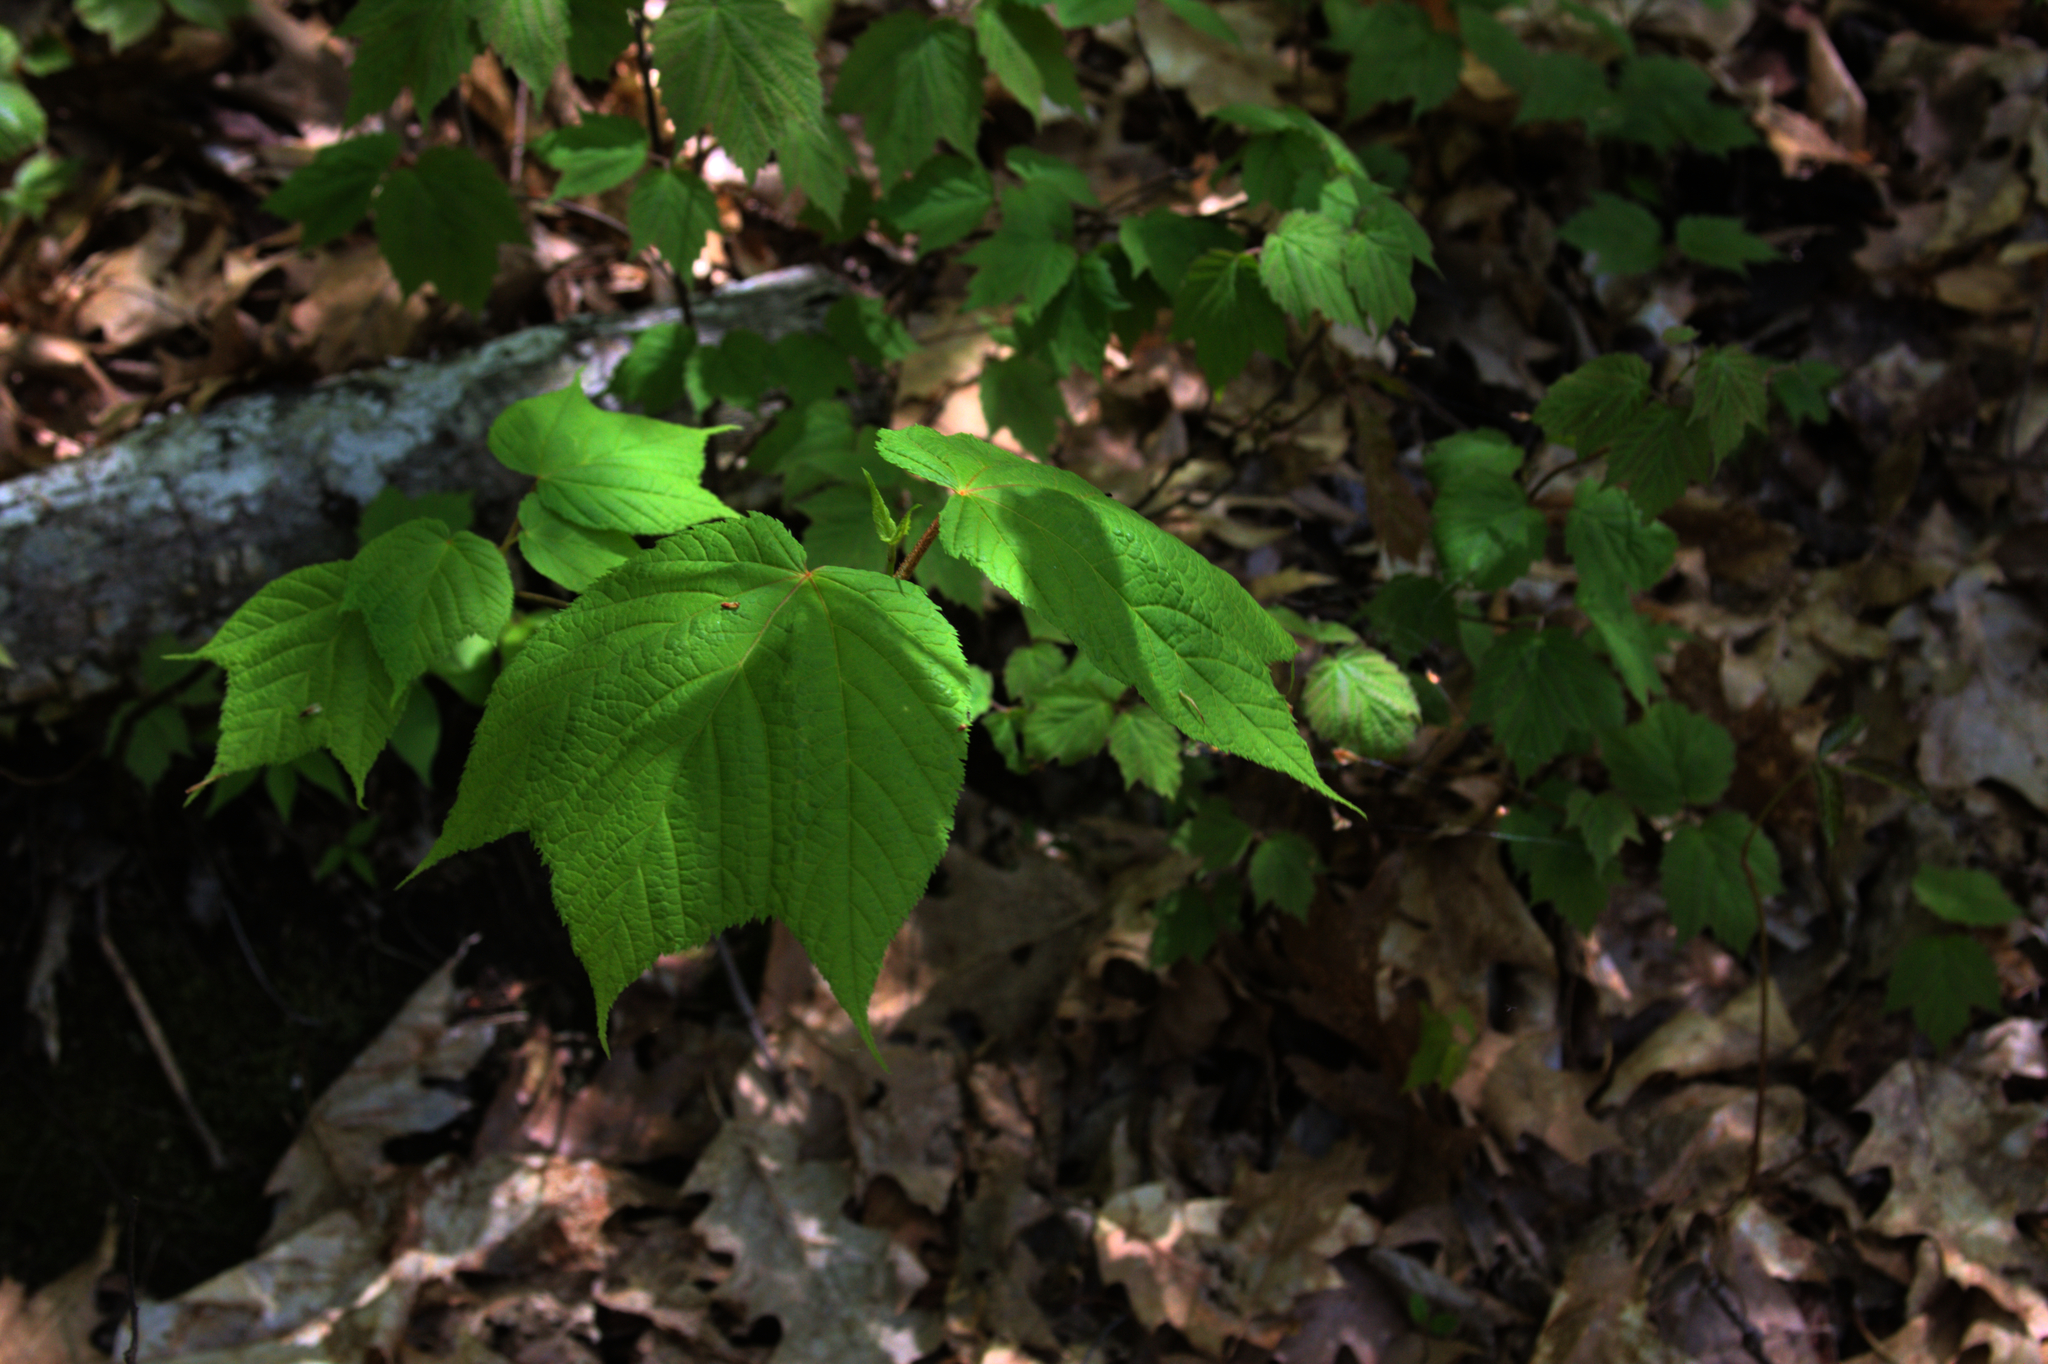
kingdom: Plantae
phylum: Tracheophyta
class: Magnoliopsida
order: Sapindales
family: Sapindaceae
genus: Acer
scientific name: Acer pensylvanicum
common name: Moosewood
